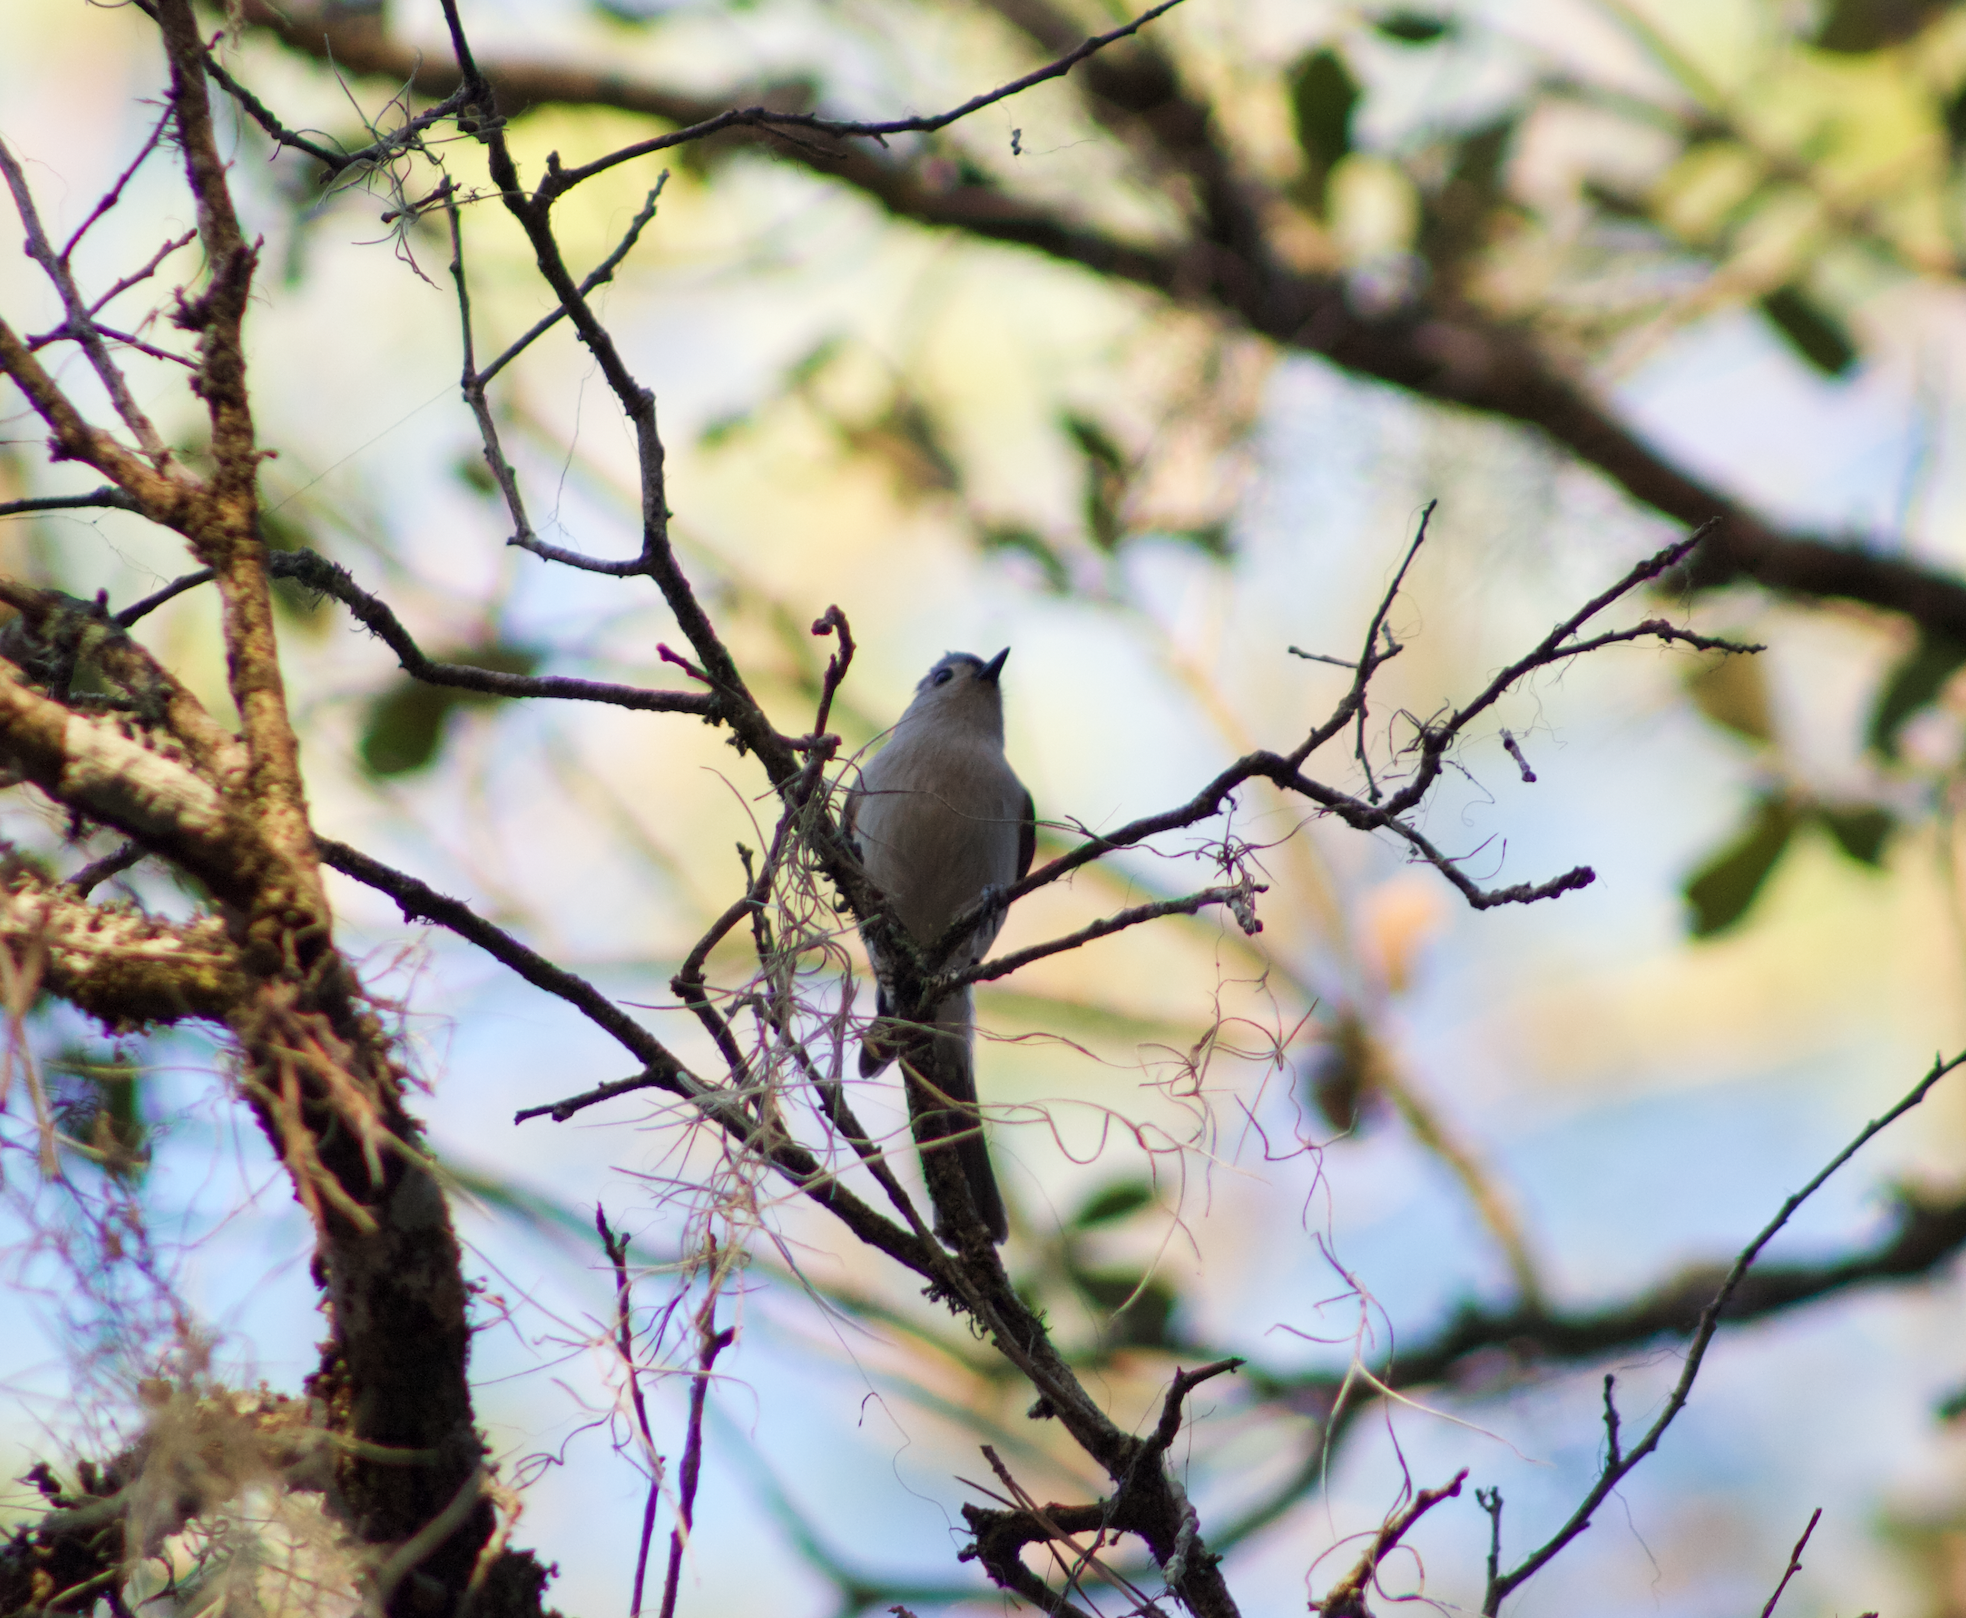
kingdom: Animalia
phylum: Chordata
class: Aves
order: Passeriformes
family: Paridae
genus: Baeolophus
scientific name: Baeolophus bicolor
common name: Tufted titmouse
